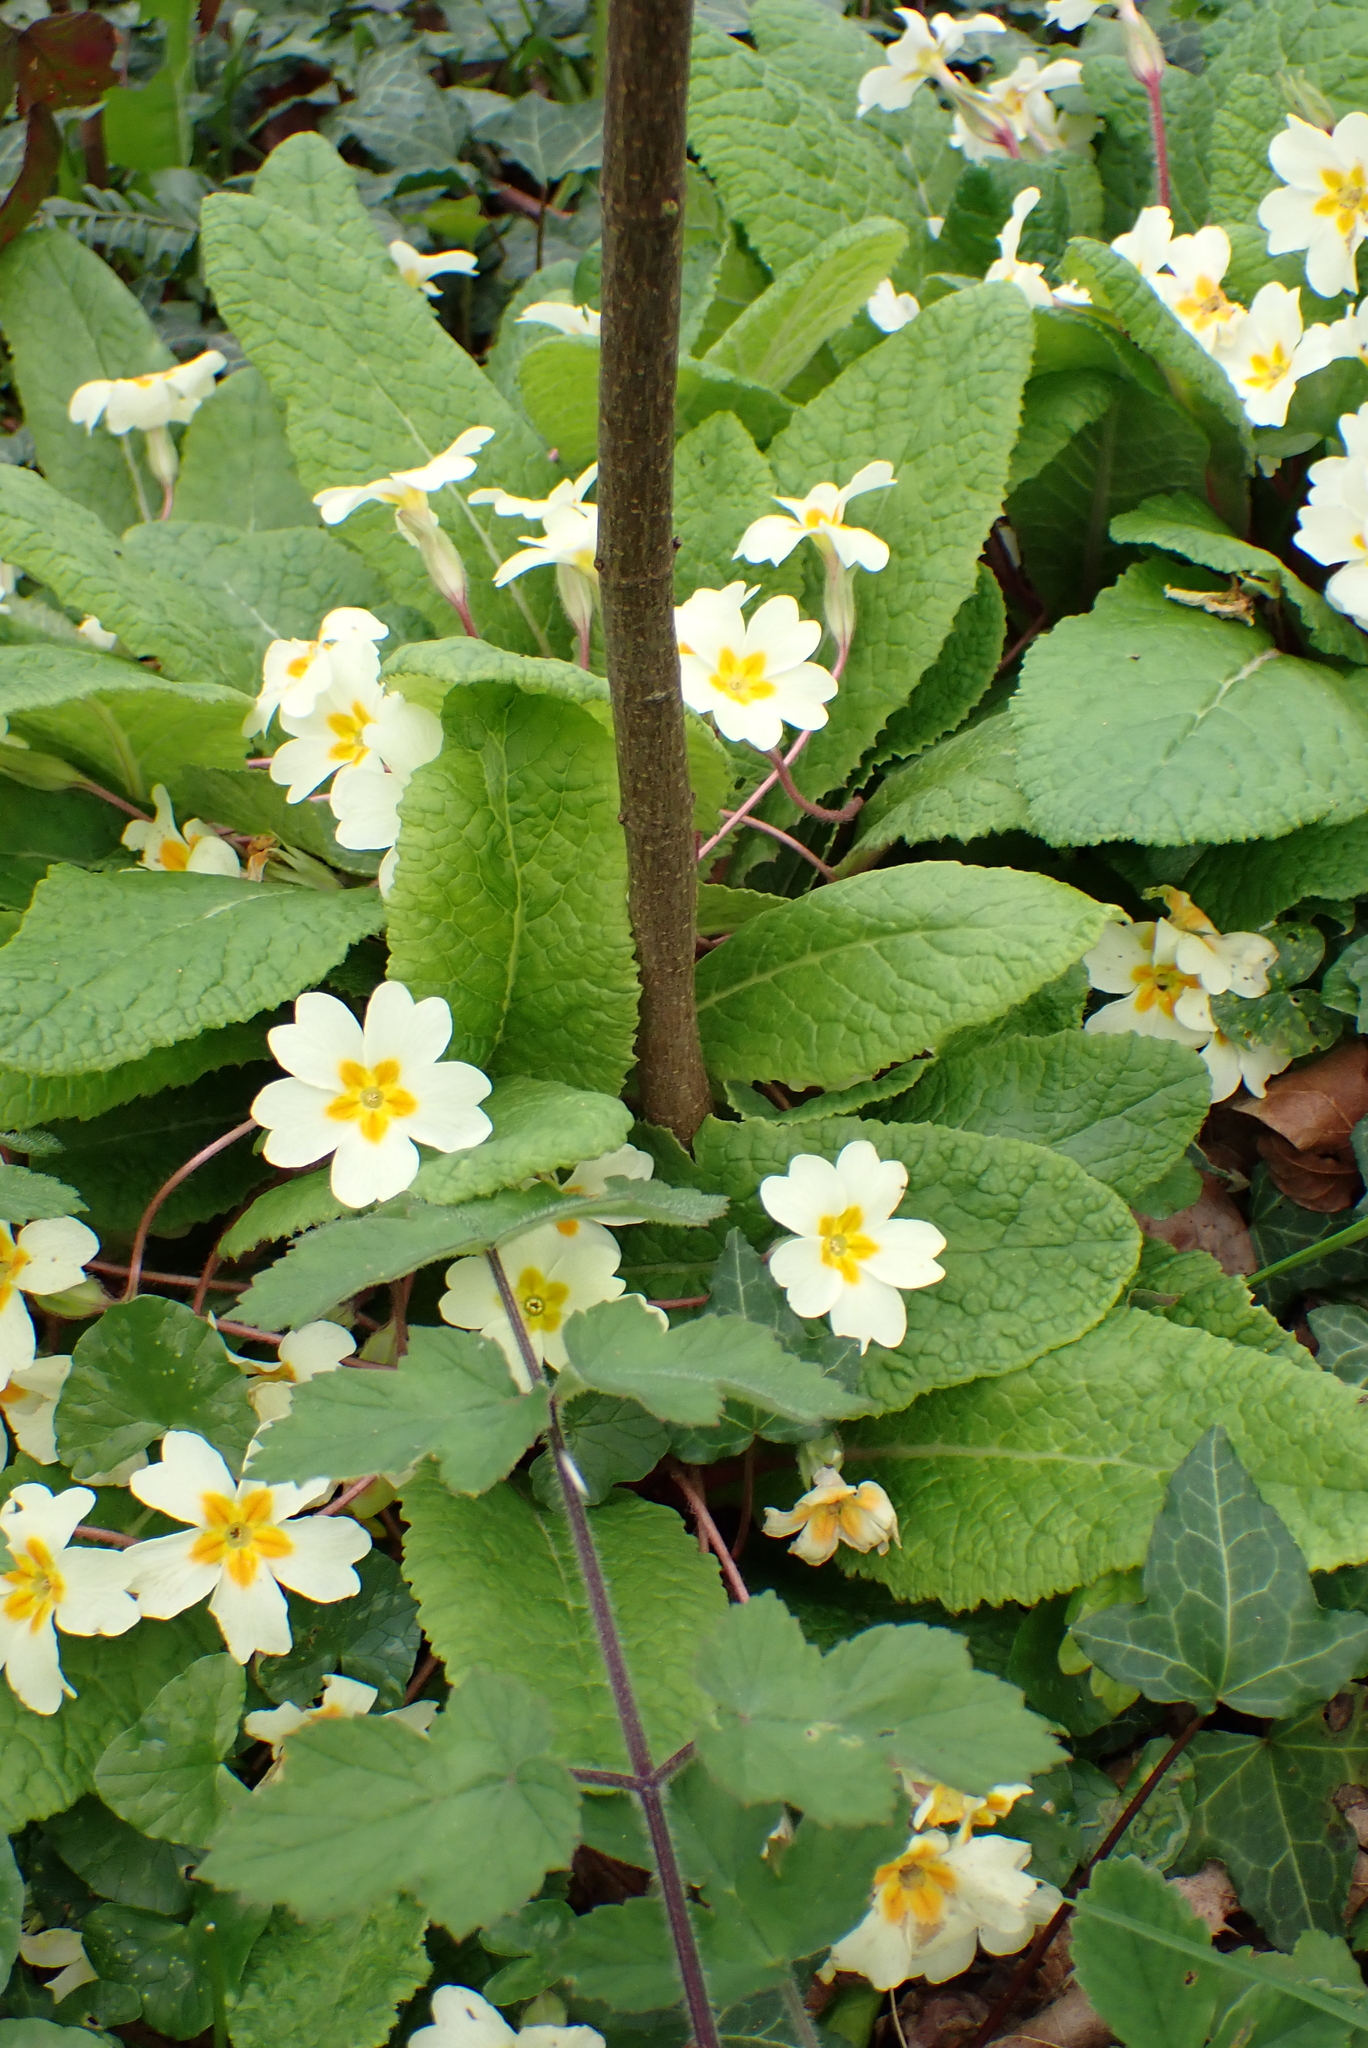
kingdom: Plantae
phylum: Tracheophyta
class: Magnoliopsida
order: Ericales
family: Primulaceae
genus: Primula
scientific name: Primula vulgaris
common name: Primrose
